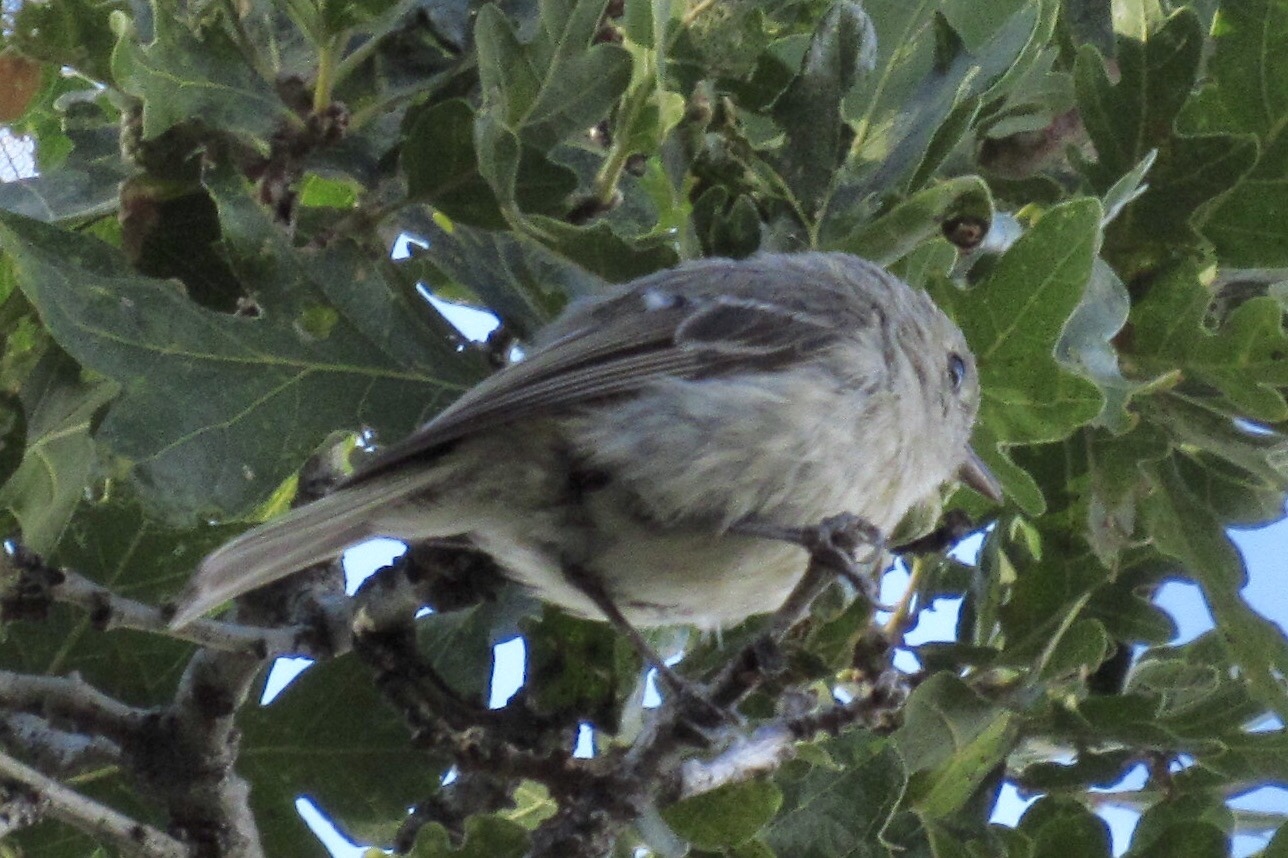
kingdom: Animalia
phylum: Chordata
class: Aves
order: Passeriformes
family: Vireonidae
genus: Vireo
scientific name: Vireo huttoni
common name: Hutton's vireo
